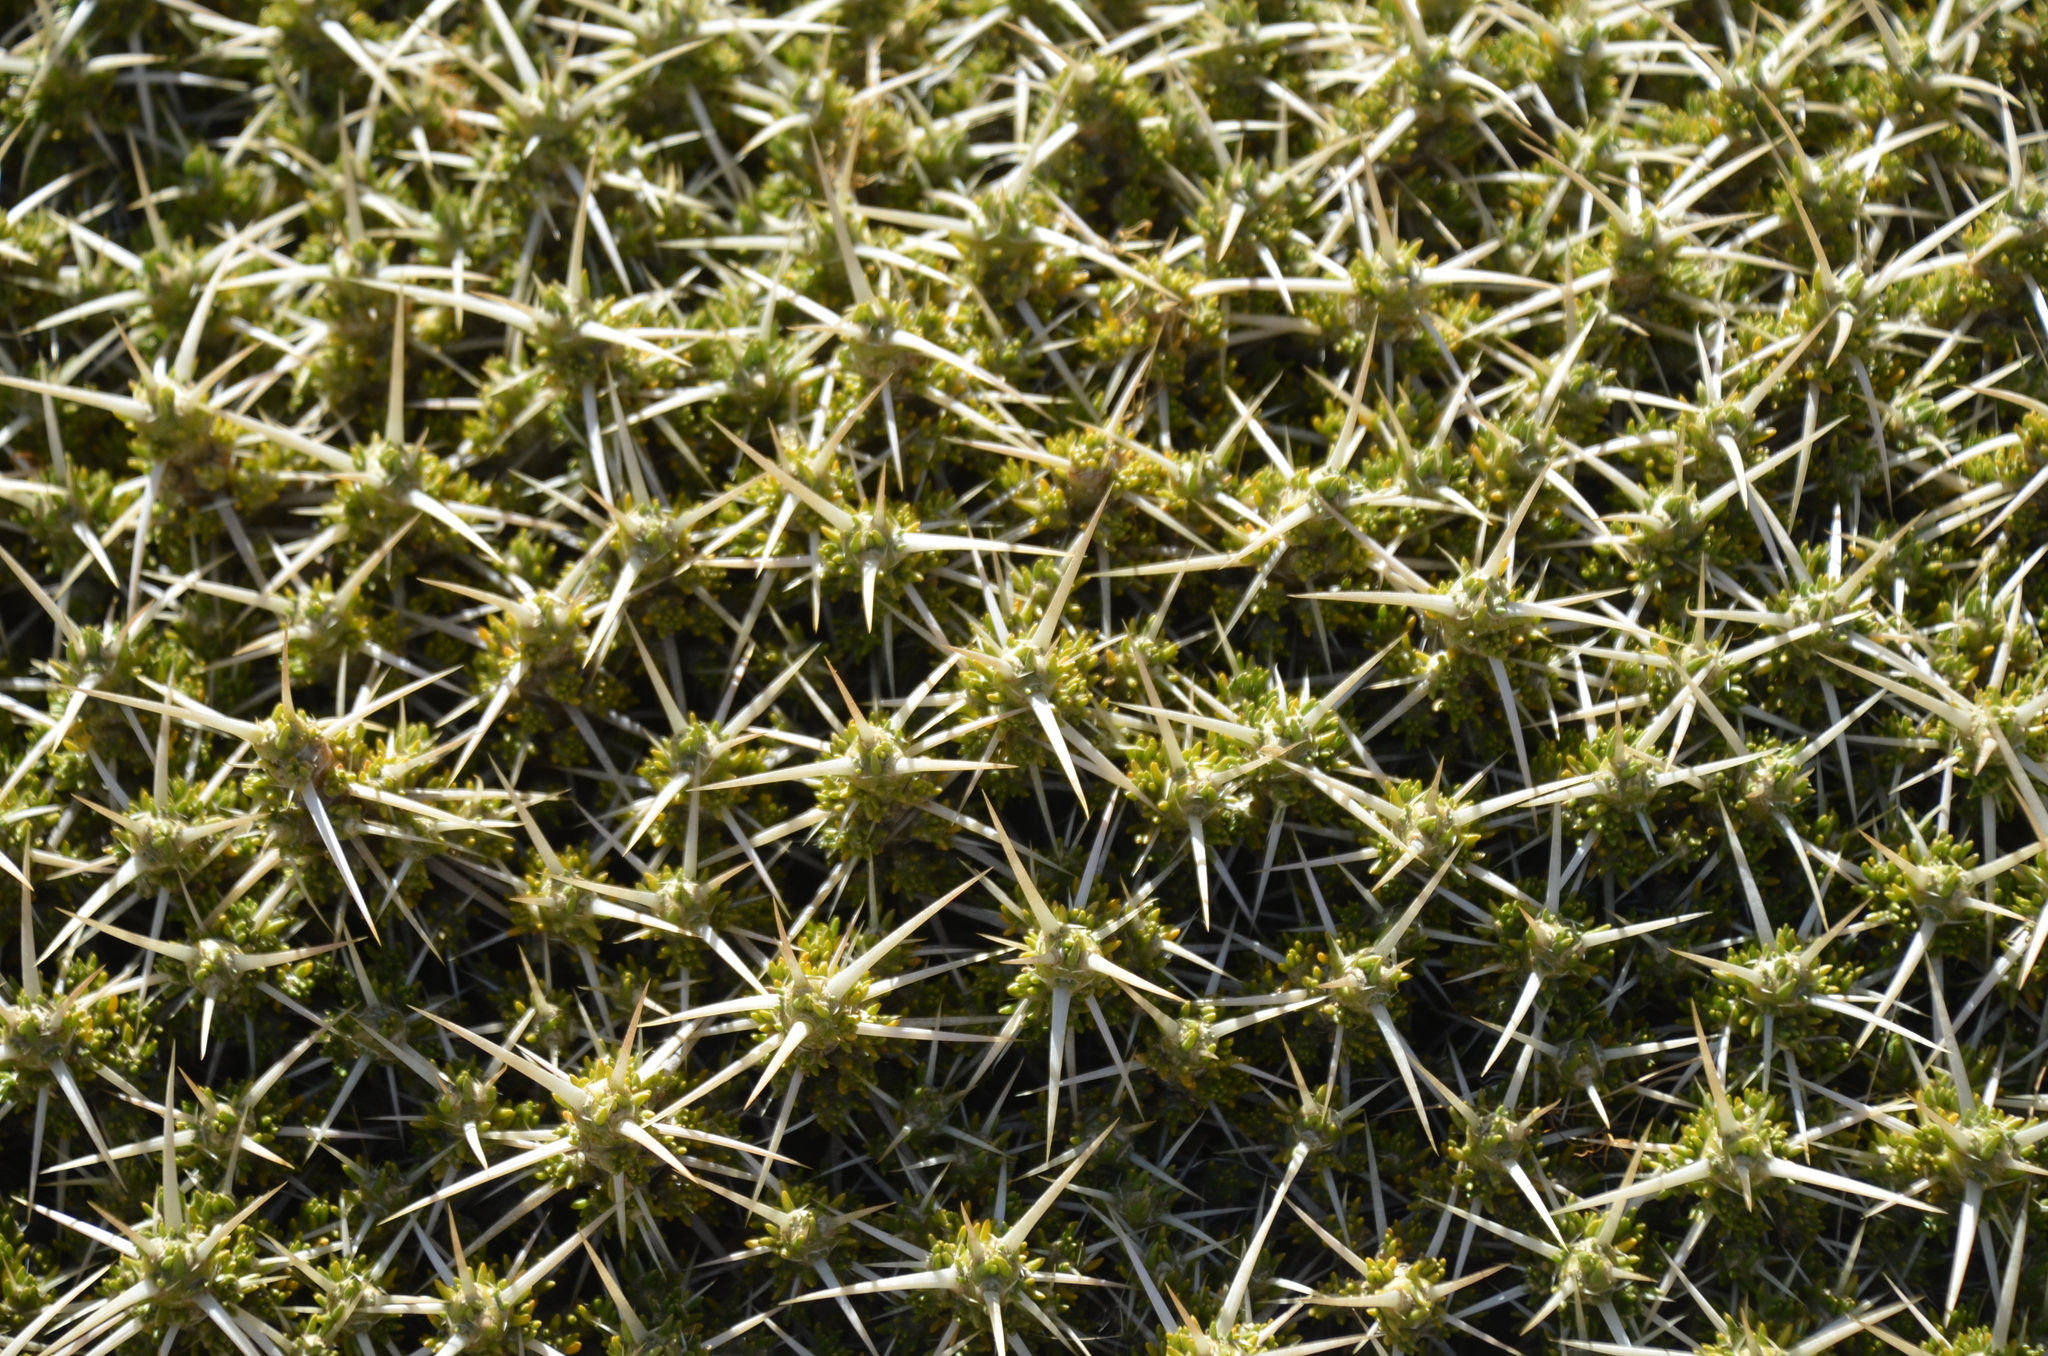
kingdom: Plantae
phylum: Tracheophyta
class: Magnoliopsida
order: Caryophyllales
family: Cactaceae
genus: Maihuenia
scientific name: Maihuenia patagonica
